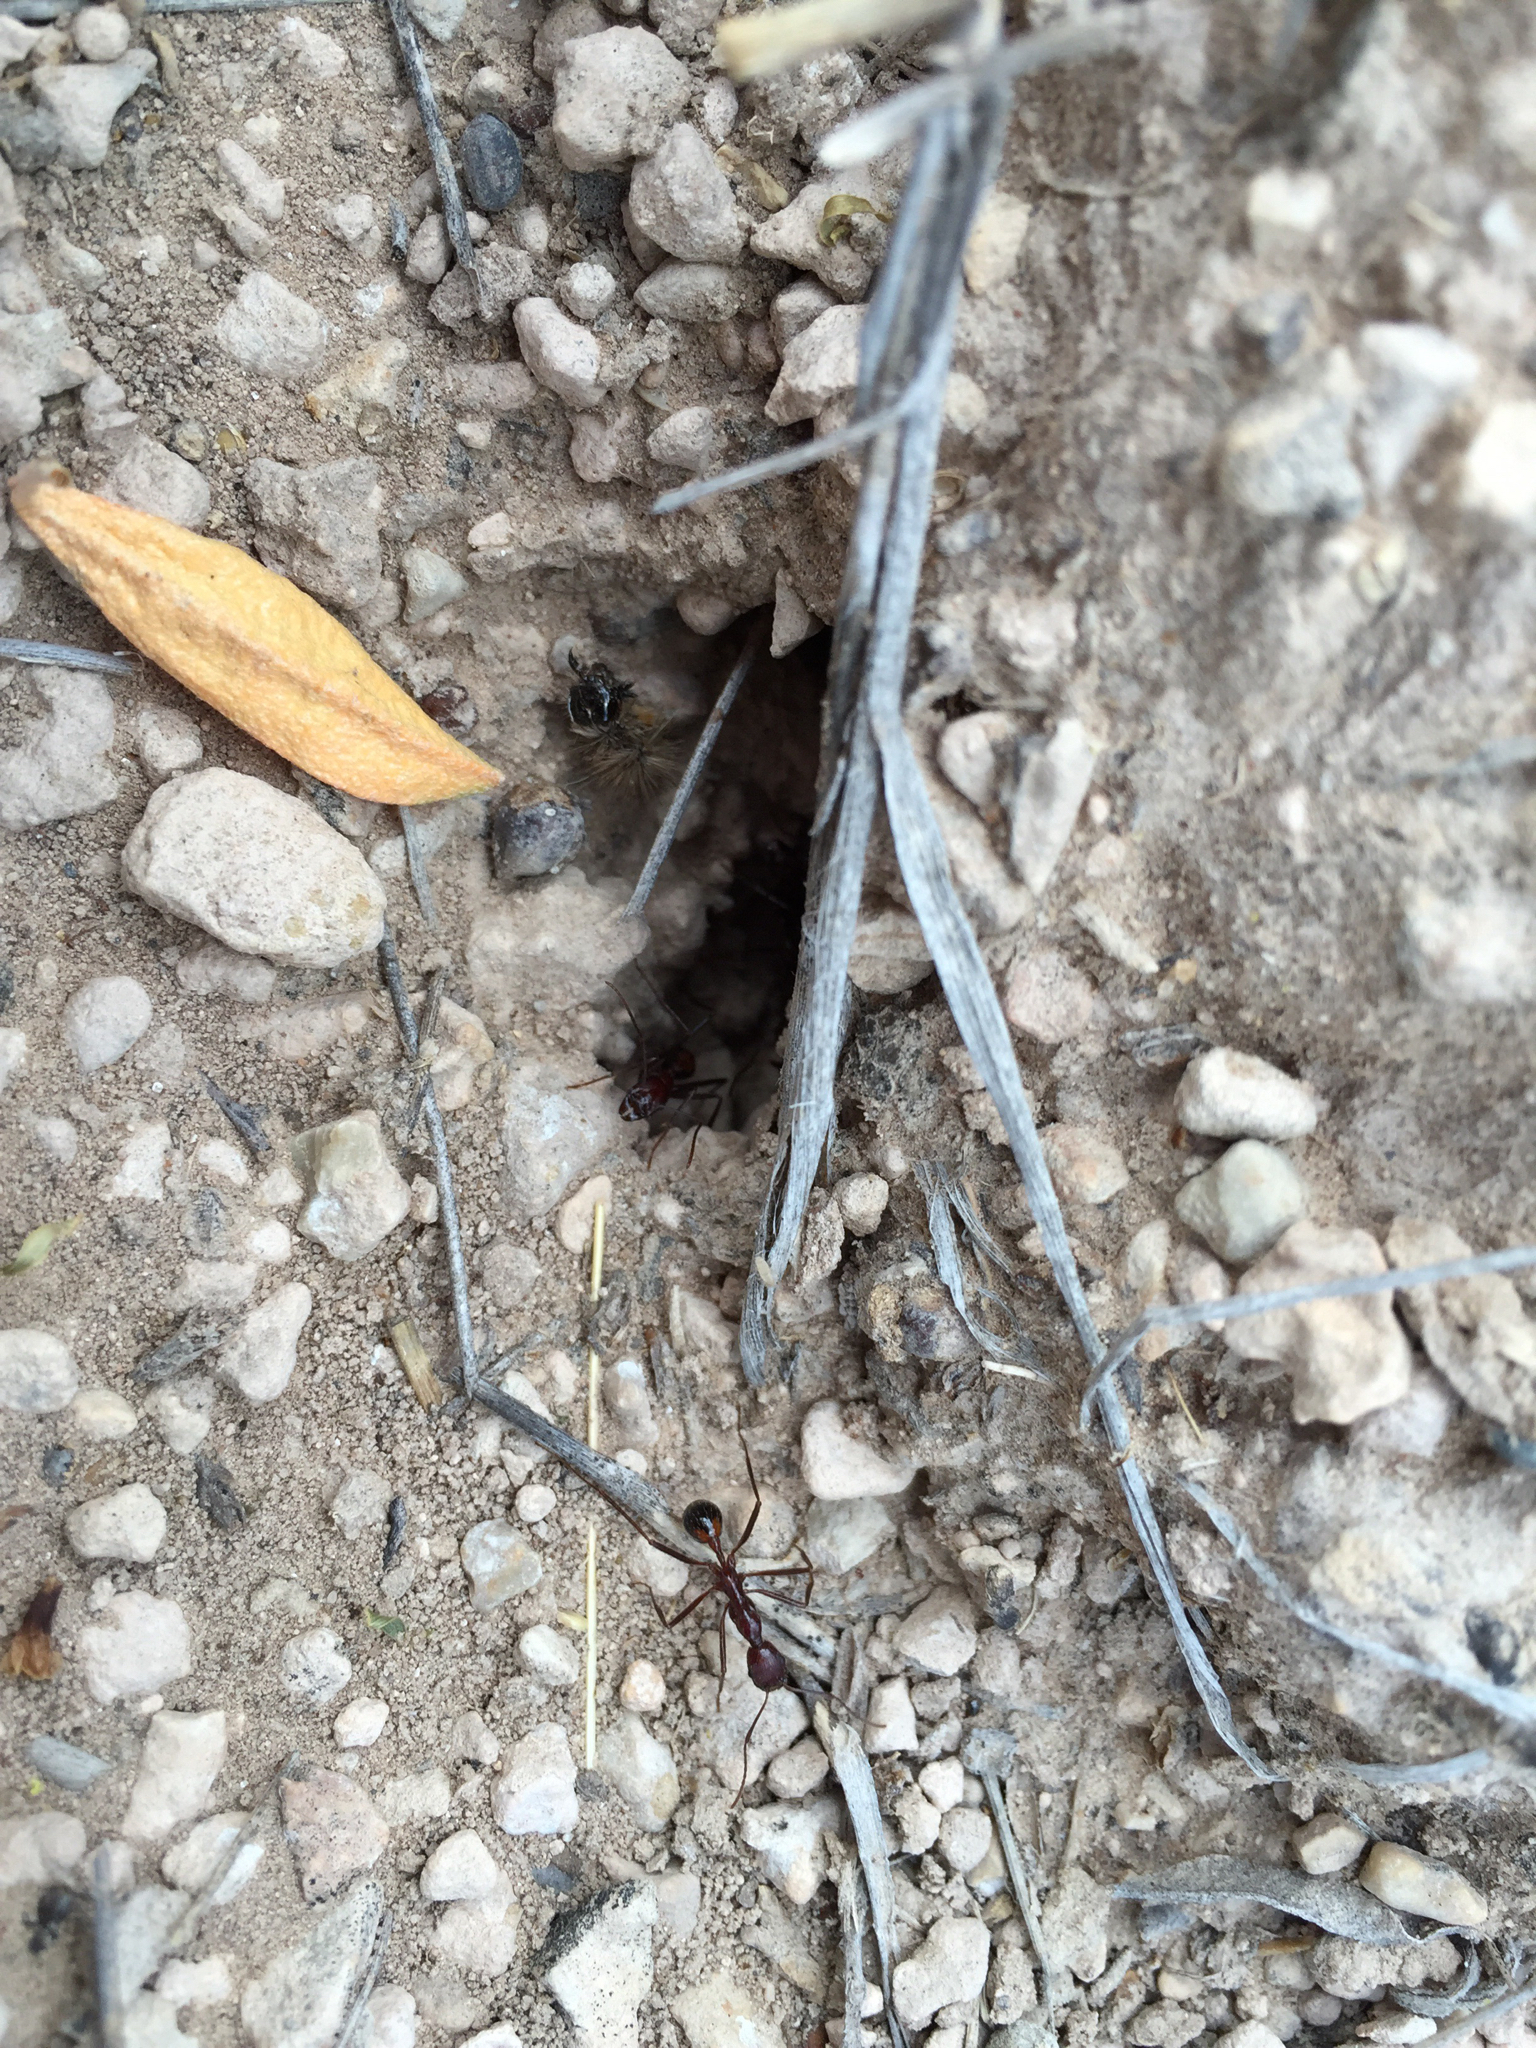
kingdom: Animalia
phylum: Arthropoda
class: Insecta
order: Hymenoptera
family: Formicidae
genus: Novomessor
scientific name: Novomessor cockerelli
